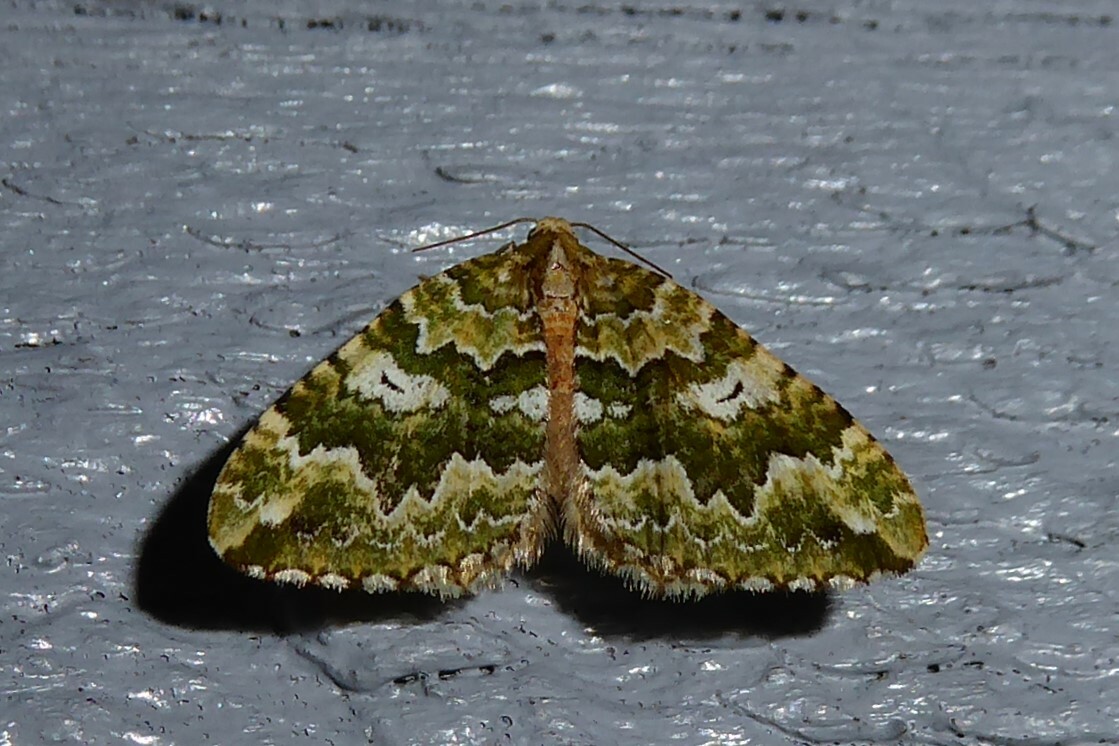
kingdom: Animalia
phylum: Arthropoda
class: Insecta
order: Lepidoptera
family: Geometridae
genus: Asaphodes
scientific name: Asaphodes beata
